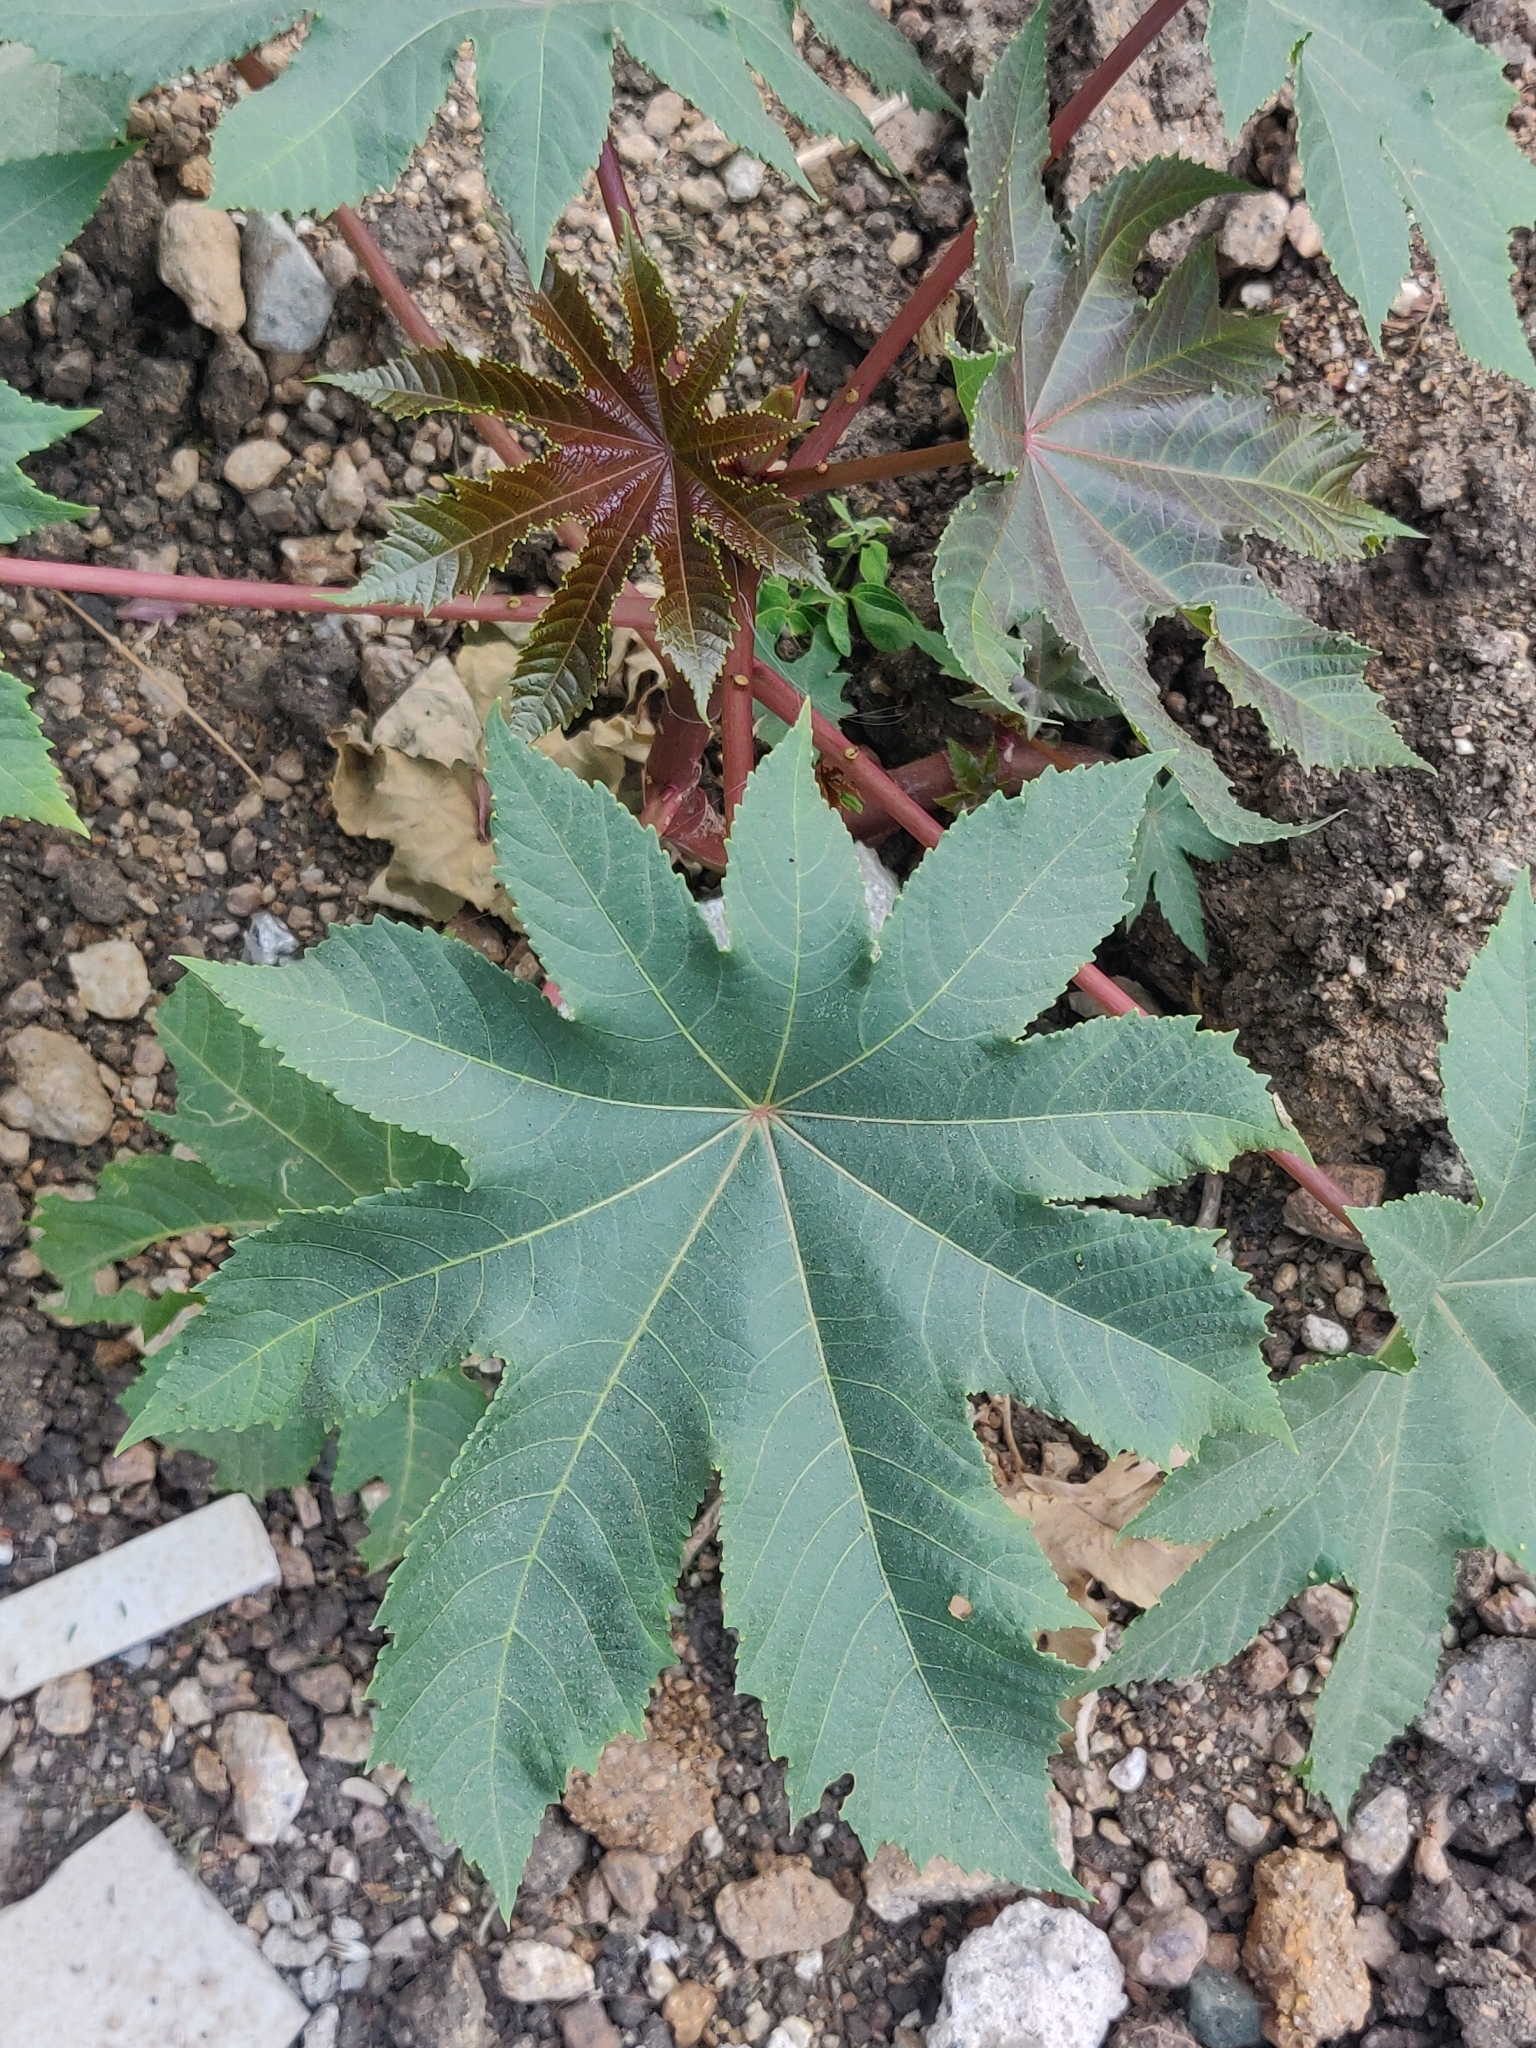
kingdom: Plantae
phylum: Tracheophyta
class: Magnoliopsida
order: Malpighiales
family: Euphorbiaceae
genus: Ricinus
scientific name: Ricinus communis
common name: Castor-oil-plant
